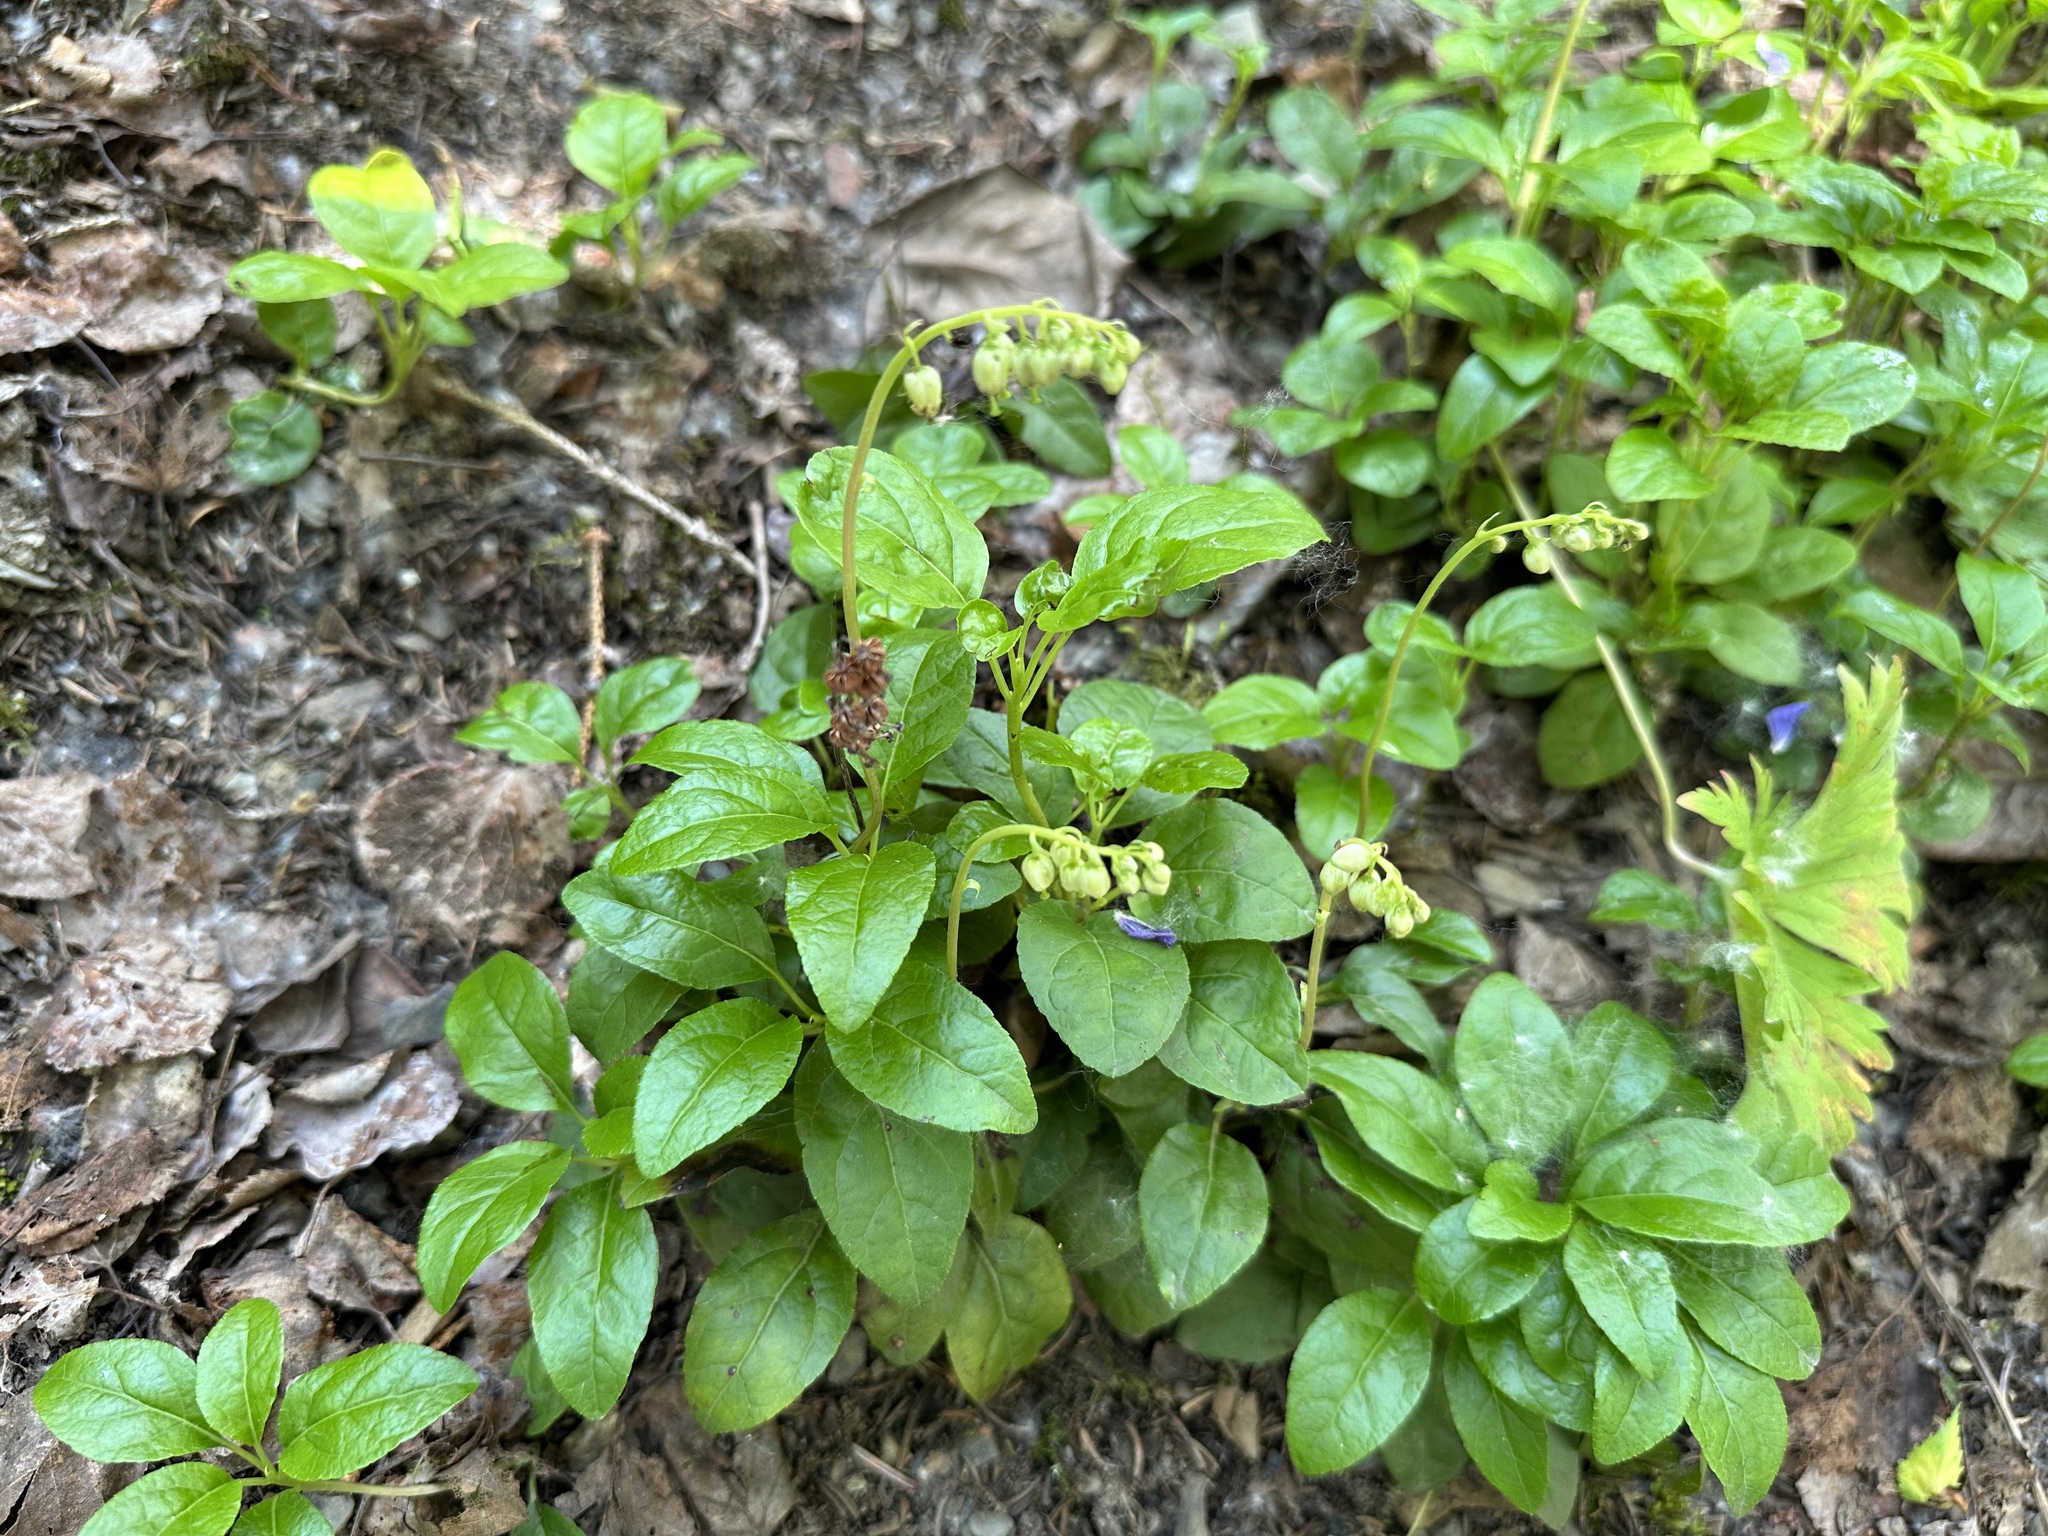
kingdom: Plantae
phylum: Tracheophyta
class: Magnoliopsida
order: Ericales
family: Ericaceae
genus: Orthilia
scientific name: Orthilia secunda
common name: One-sided orthilia
